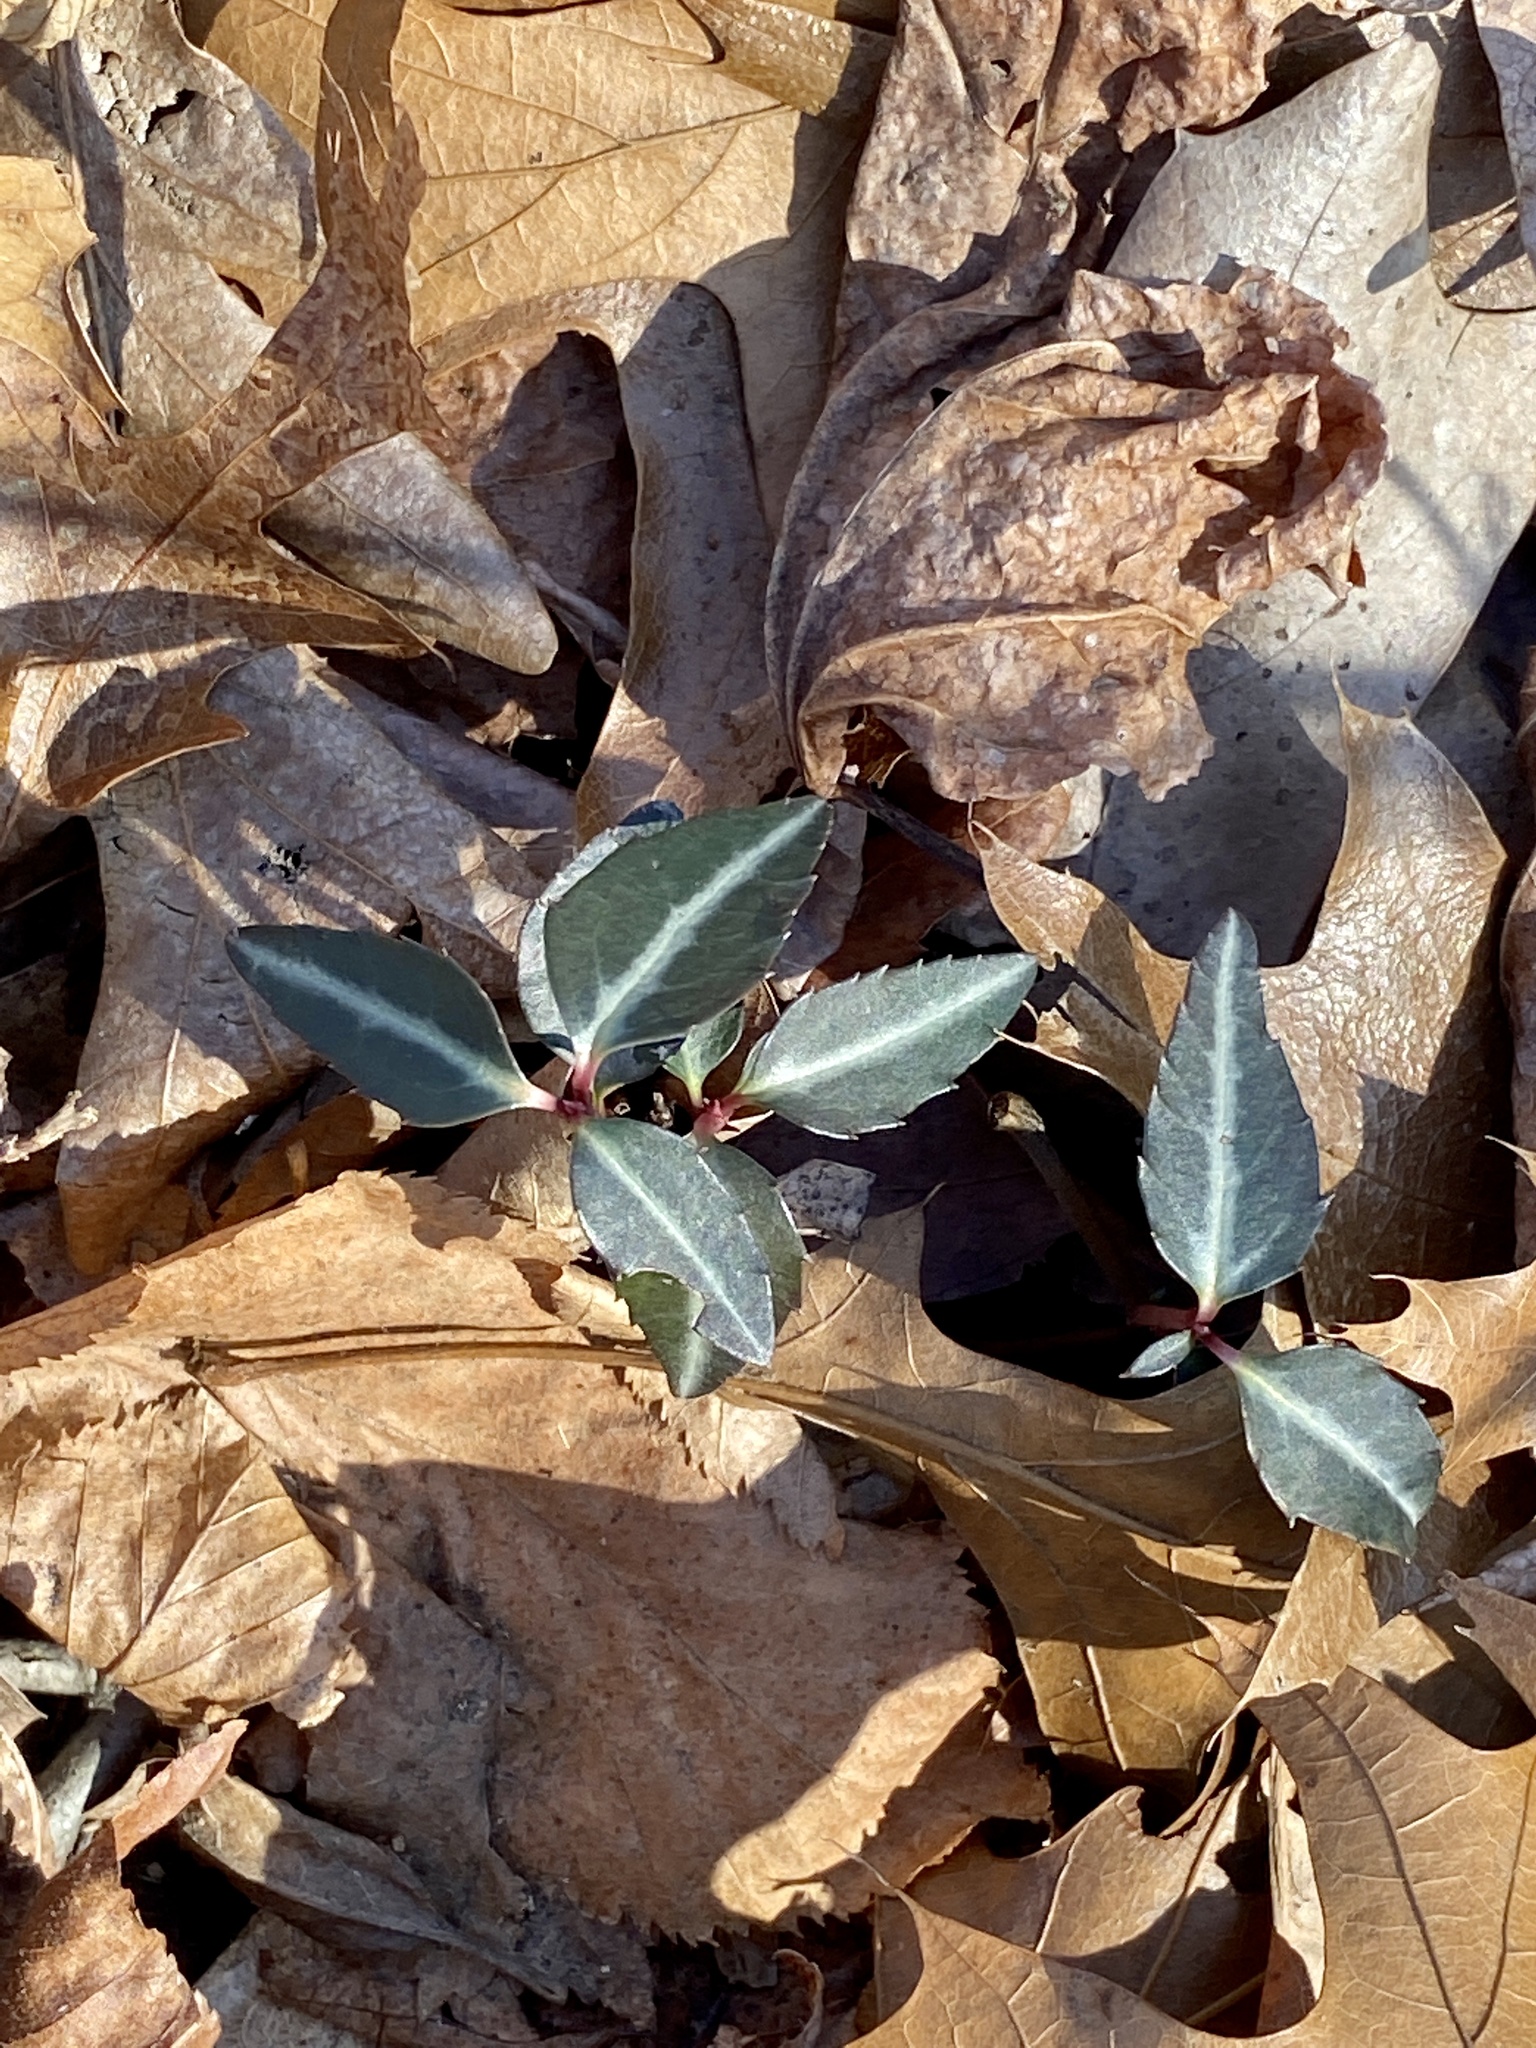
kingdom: Plantae
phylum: Tracheophyta
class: Magnoliopsida
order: Ericales
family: Ericaceae
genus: Chimaphila
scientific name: Chimaphila maculata
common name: Spotted pipsissewa
